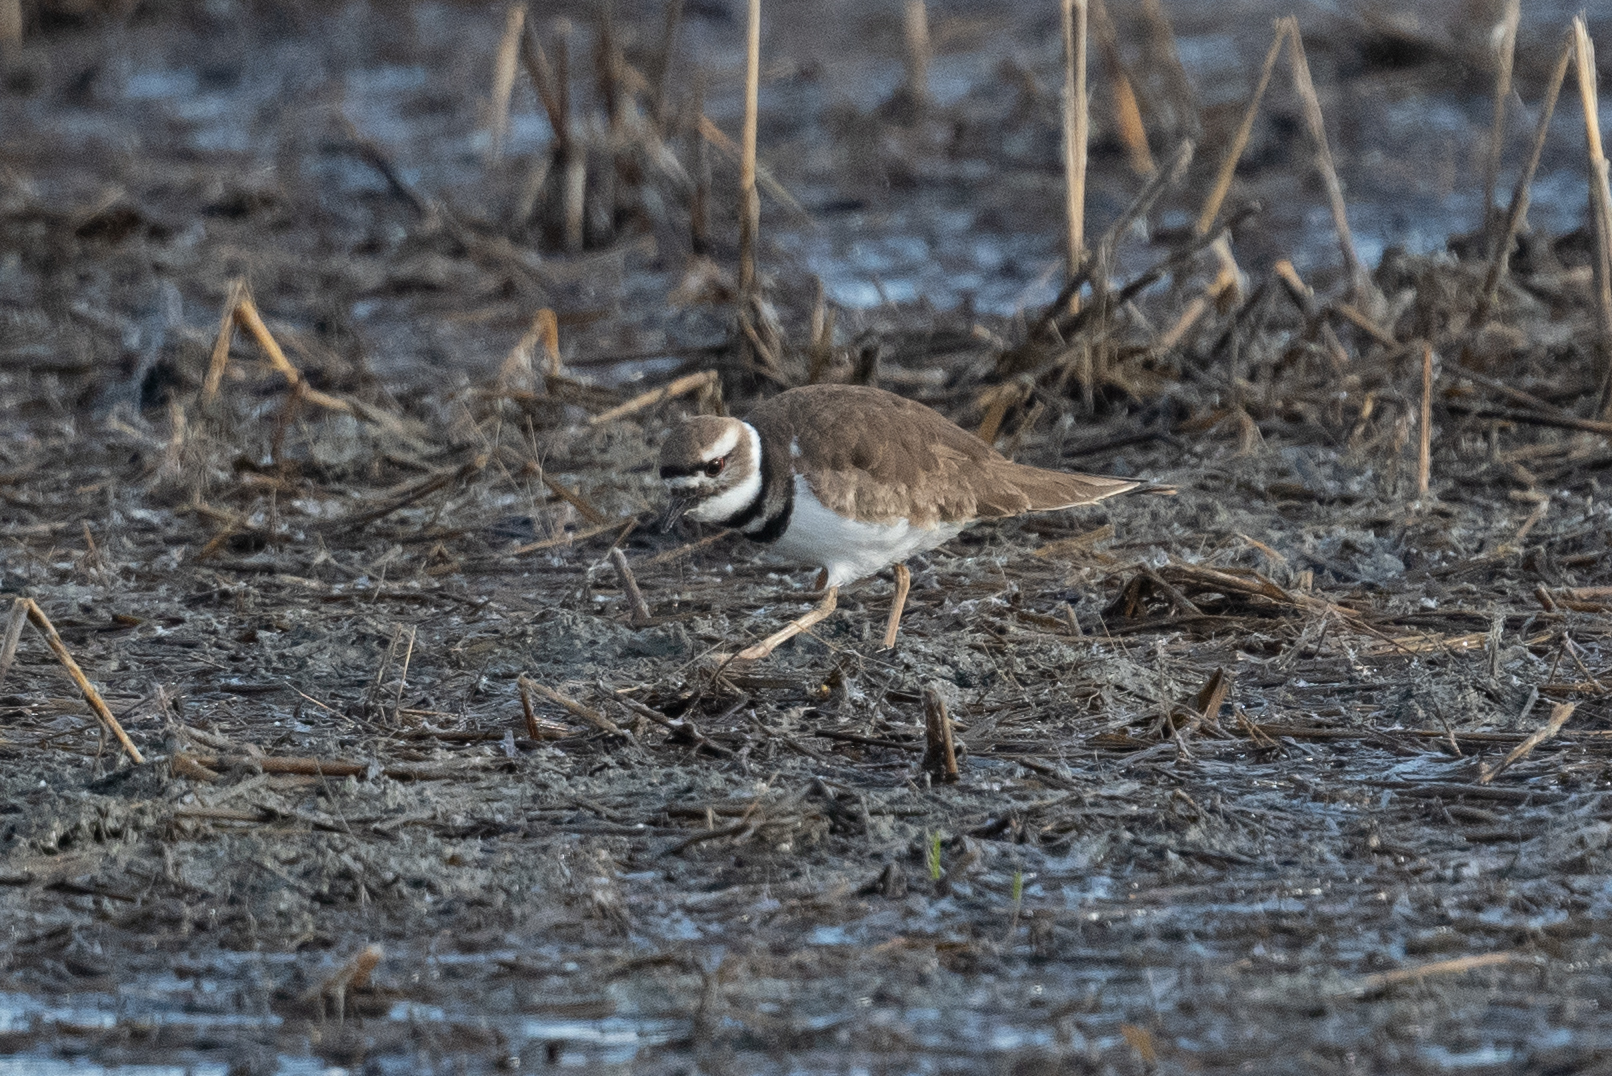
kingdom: Animalia
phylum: Chordata
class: Aves
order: Charadriiformes
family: Charadriidae
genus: Charadrius
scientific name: Charadrius vociferus
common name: Killdeer
